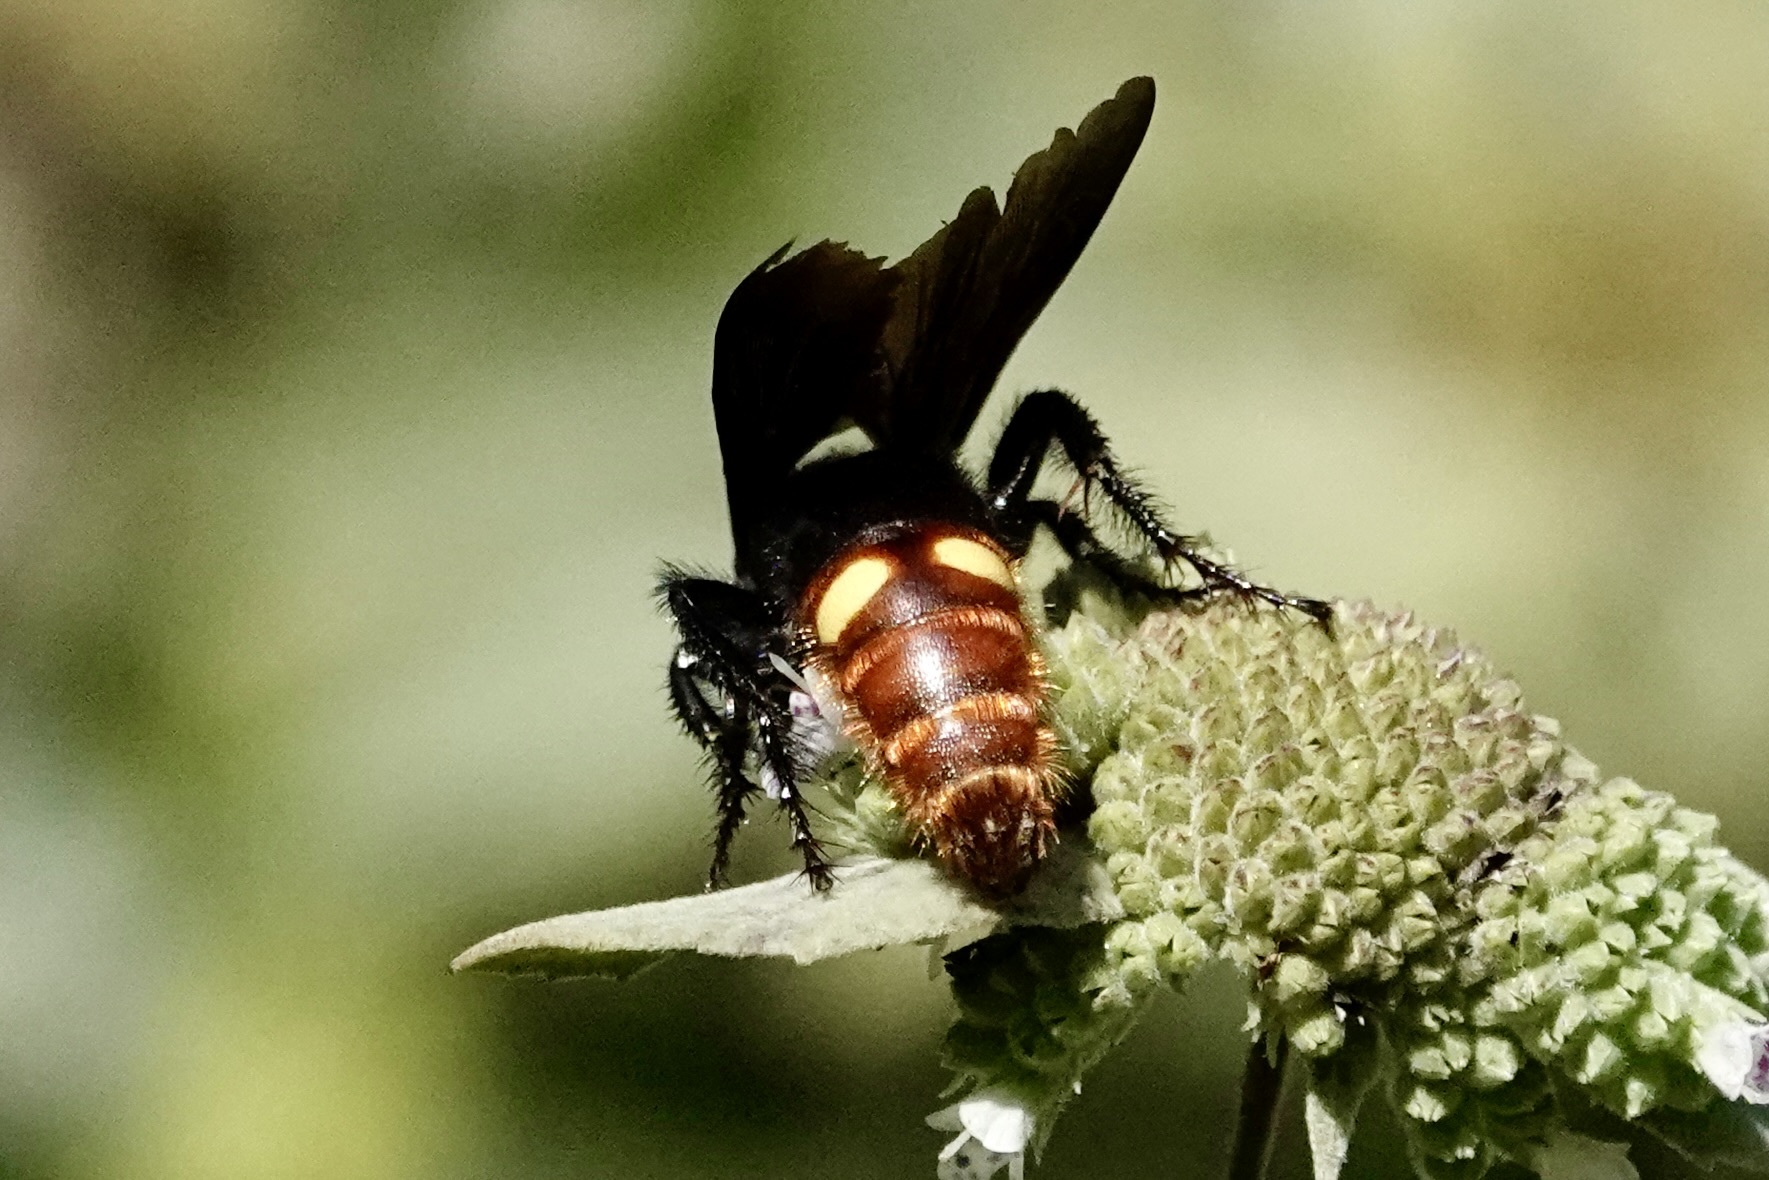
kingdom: Animalia
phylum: Arthropoda
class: Insecta
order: Hymenoptera
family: Scoliidae
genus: Scolia
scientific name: Scolia dubia
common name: Blue-winged scoliid wasp
